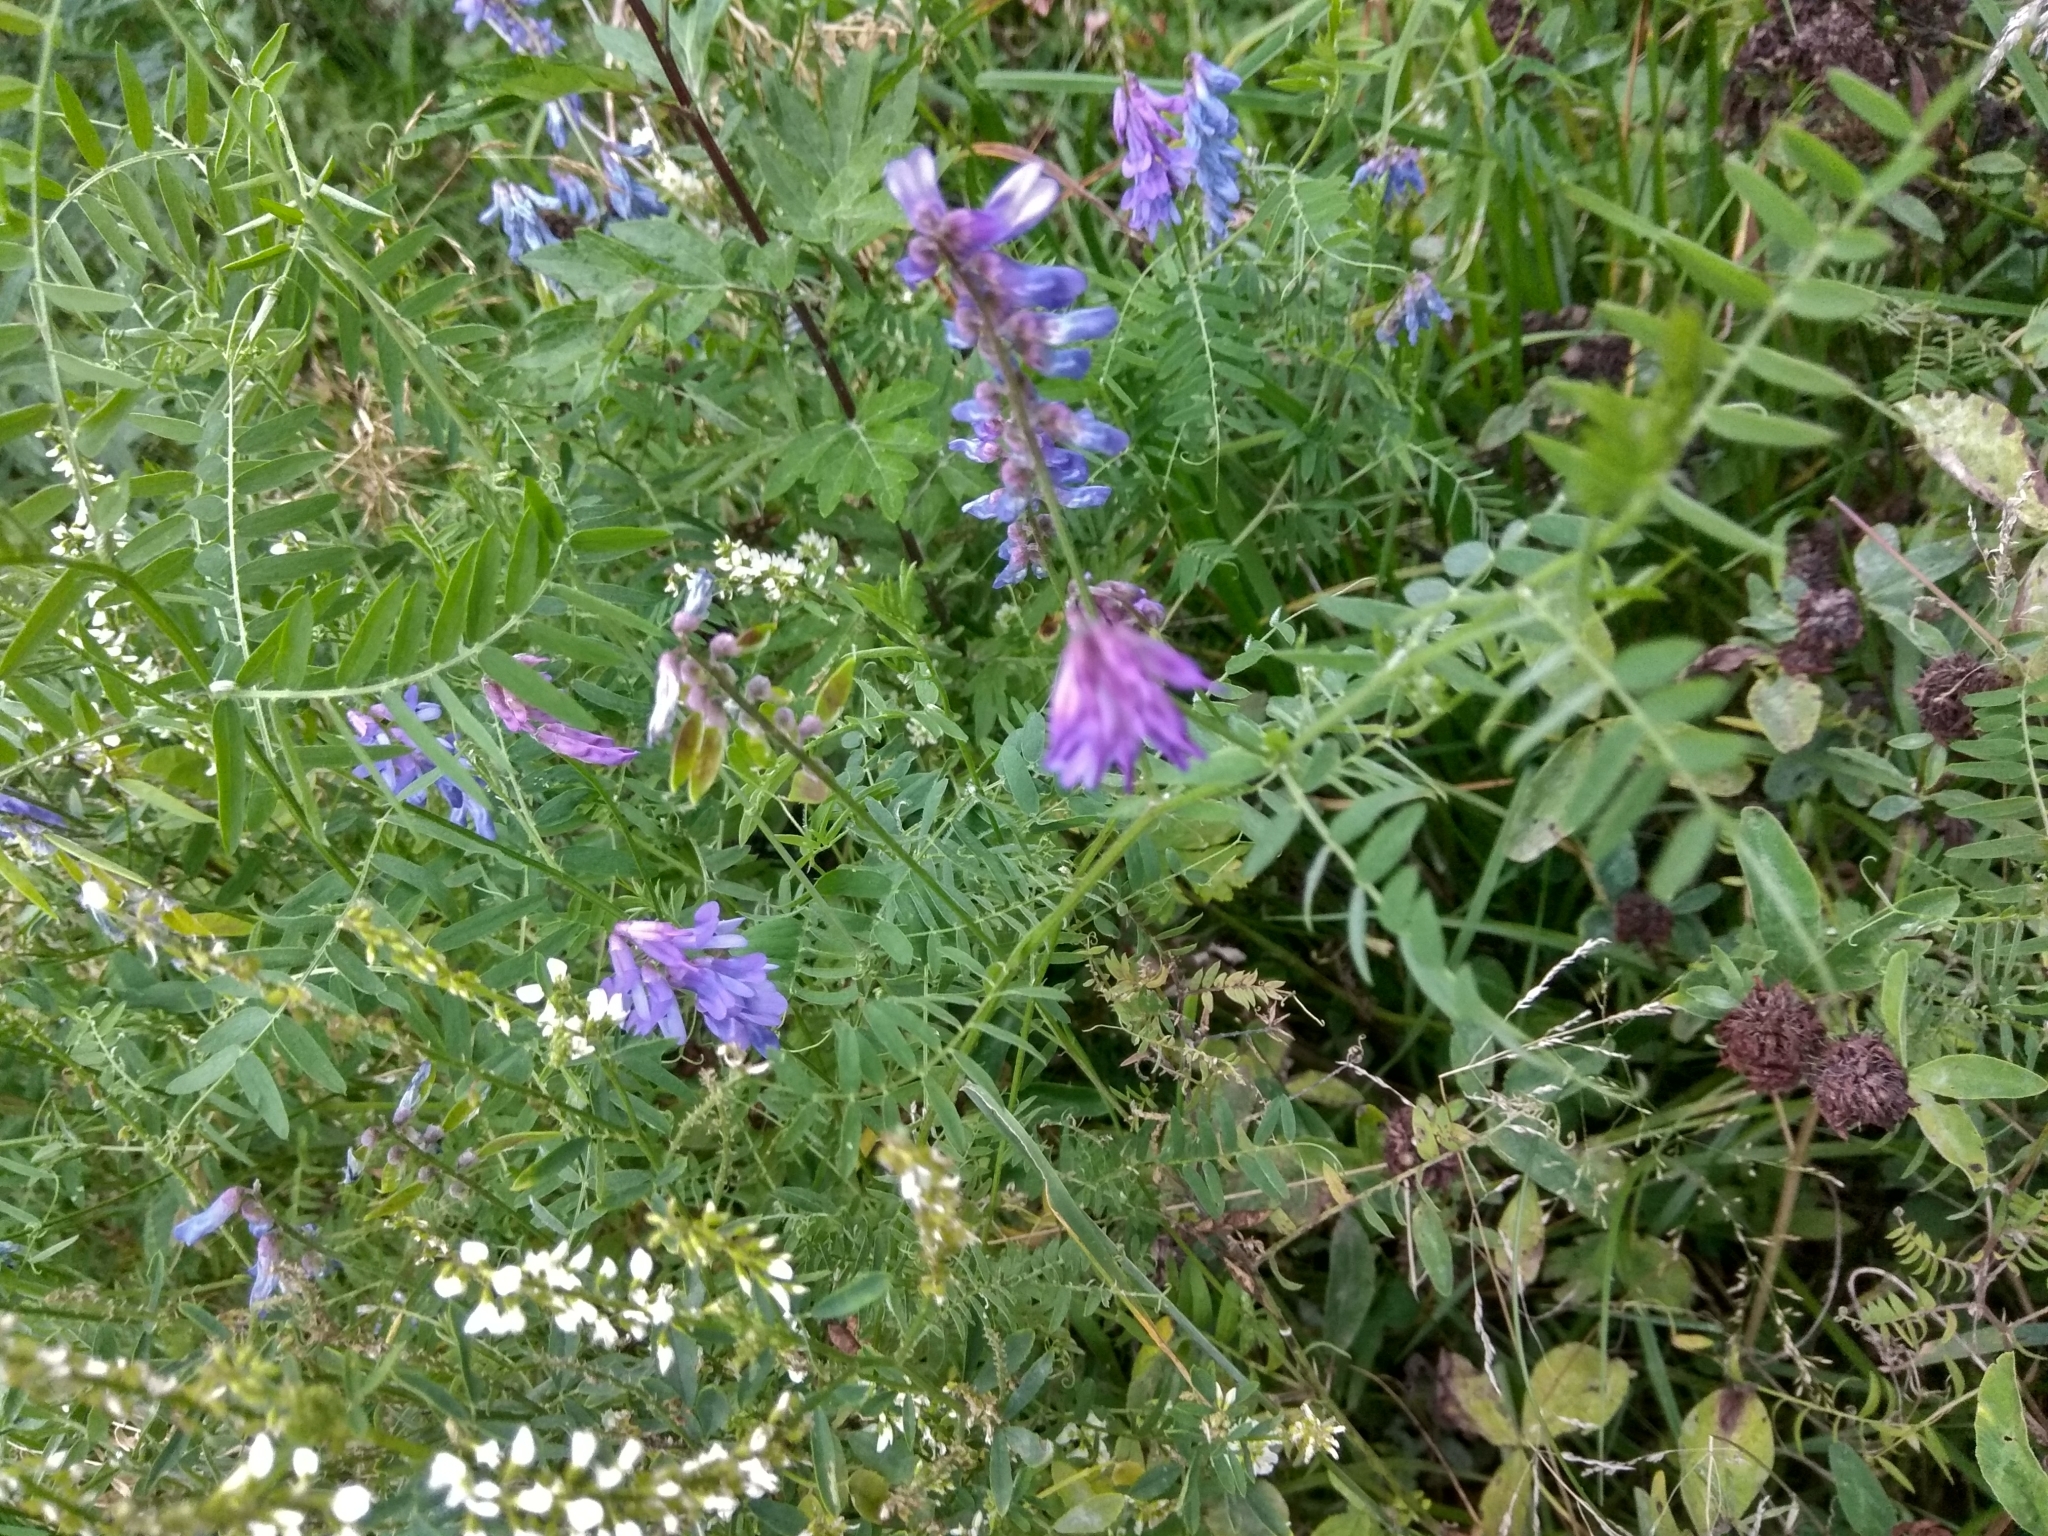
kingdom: Plantae
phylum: Tracheophyta
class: Magnoliopsida
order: Fabales
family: Fabaceae
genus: Vicia
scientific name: Vicia cracca
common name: Bird vetch
